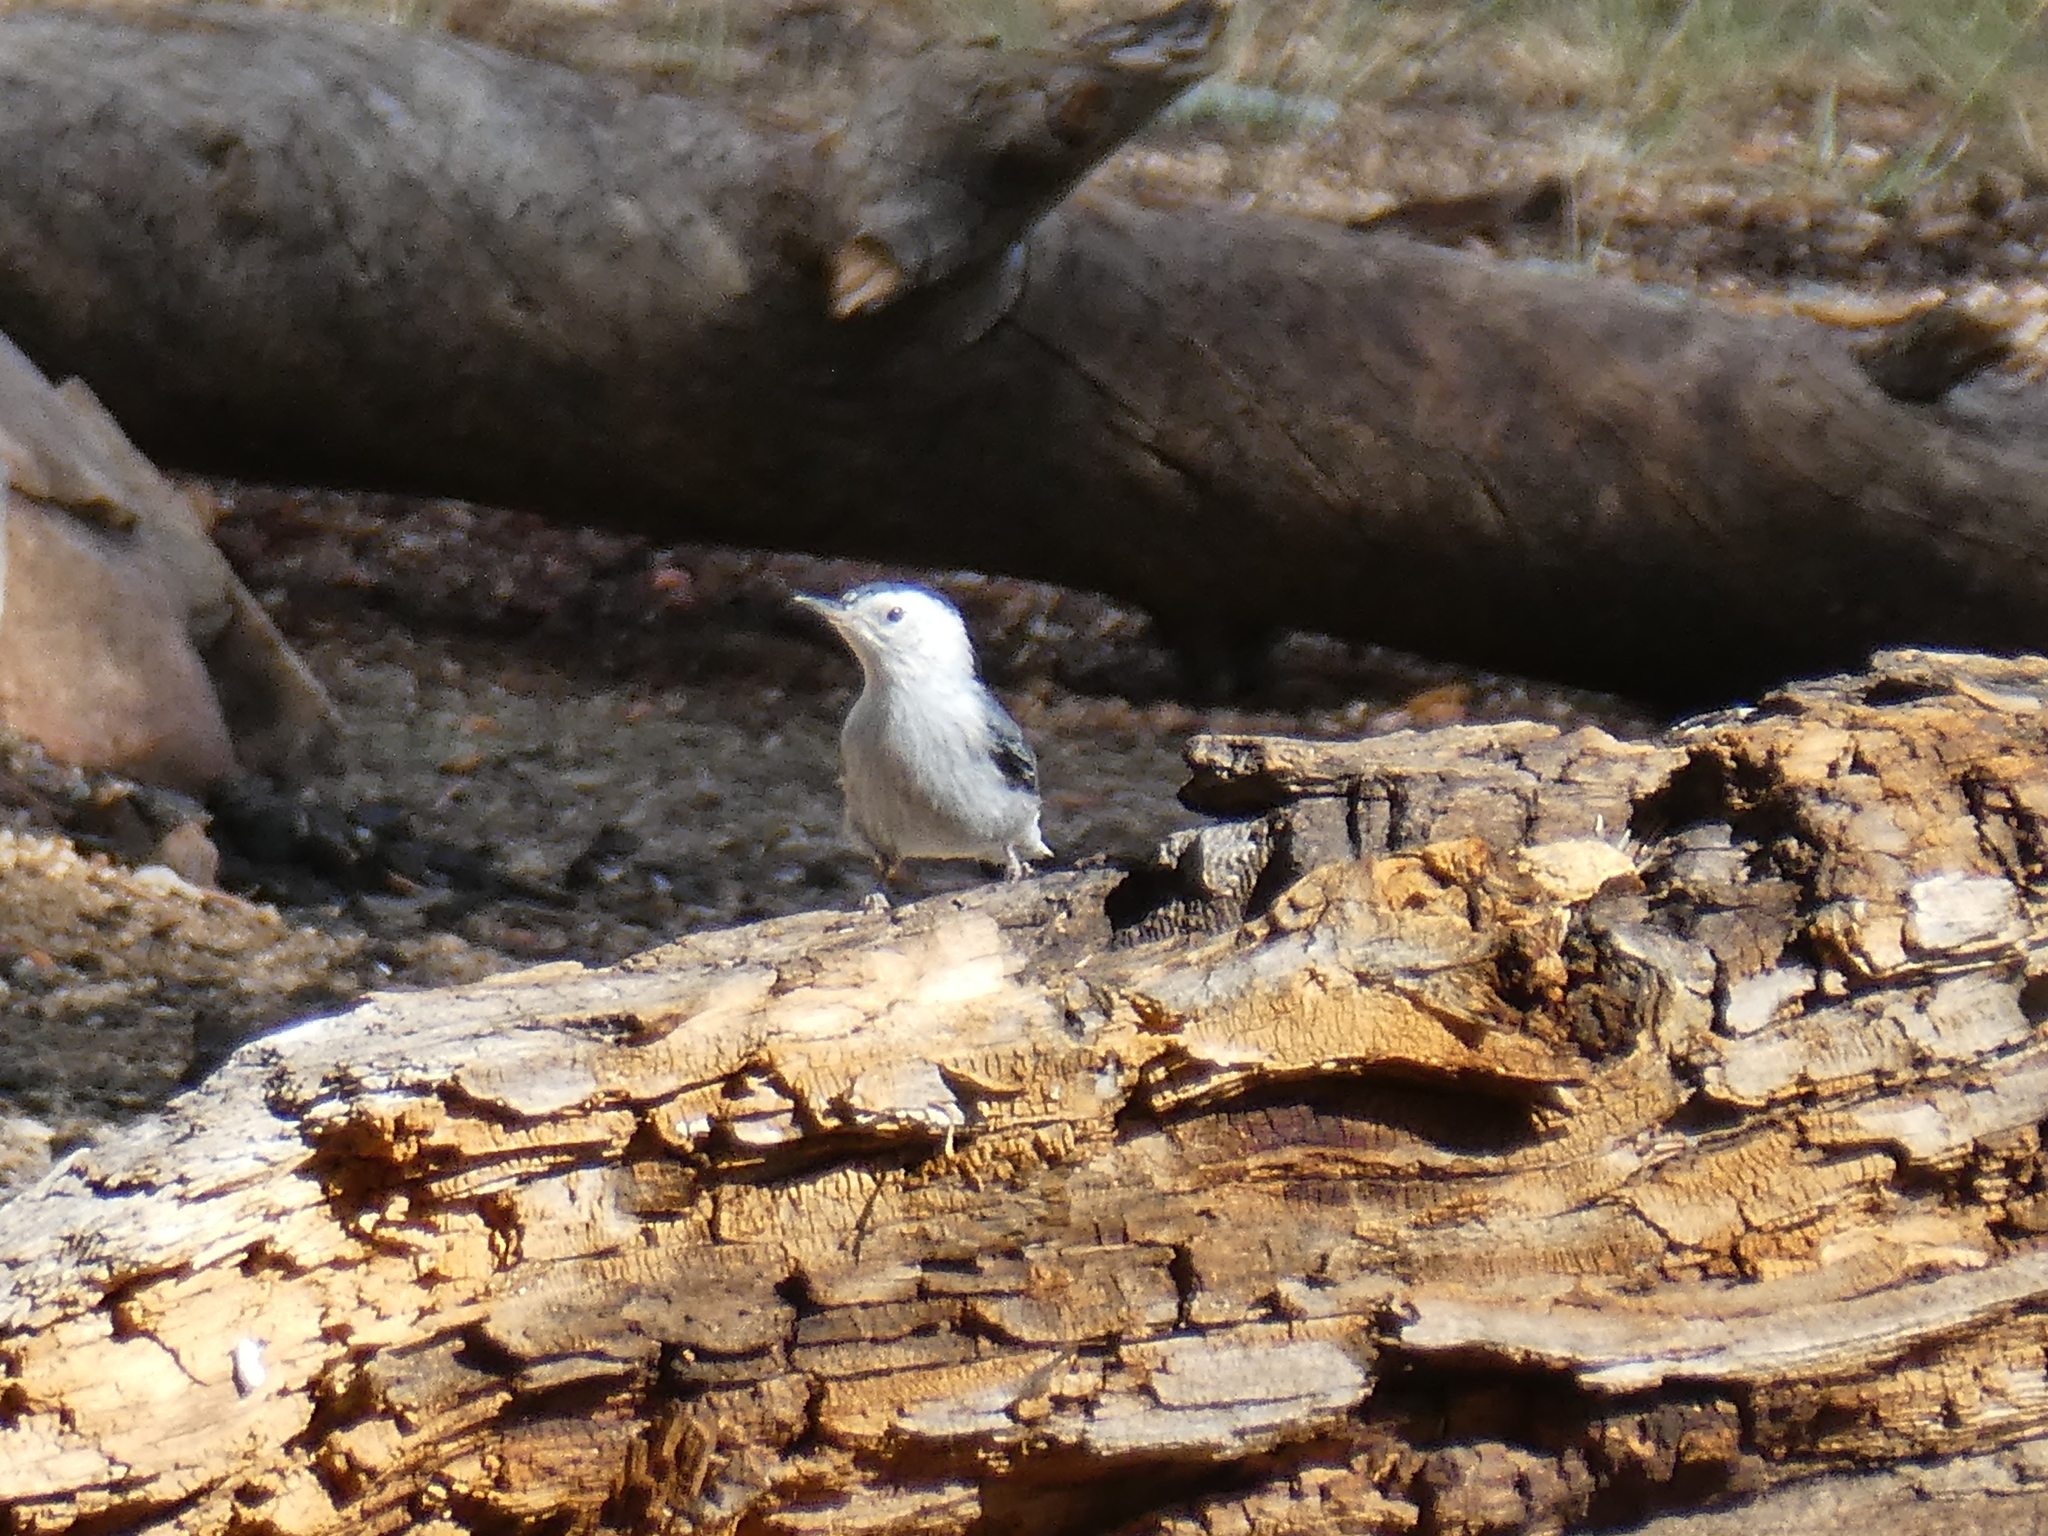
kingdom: Animalia
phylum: Chordata
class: Aves
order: Passeriformes
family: Sittidae
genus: Sitta
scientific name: Sitta carolinensis
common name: White-breasted nuthatch
